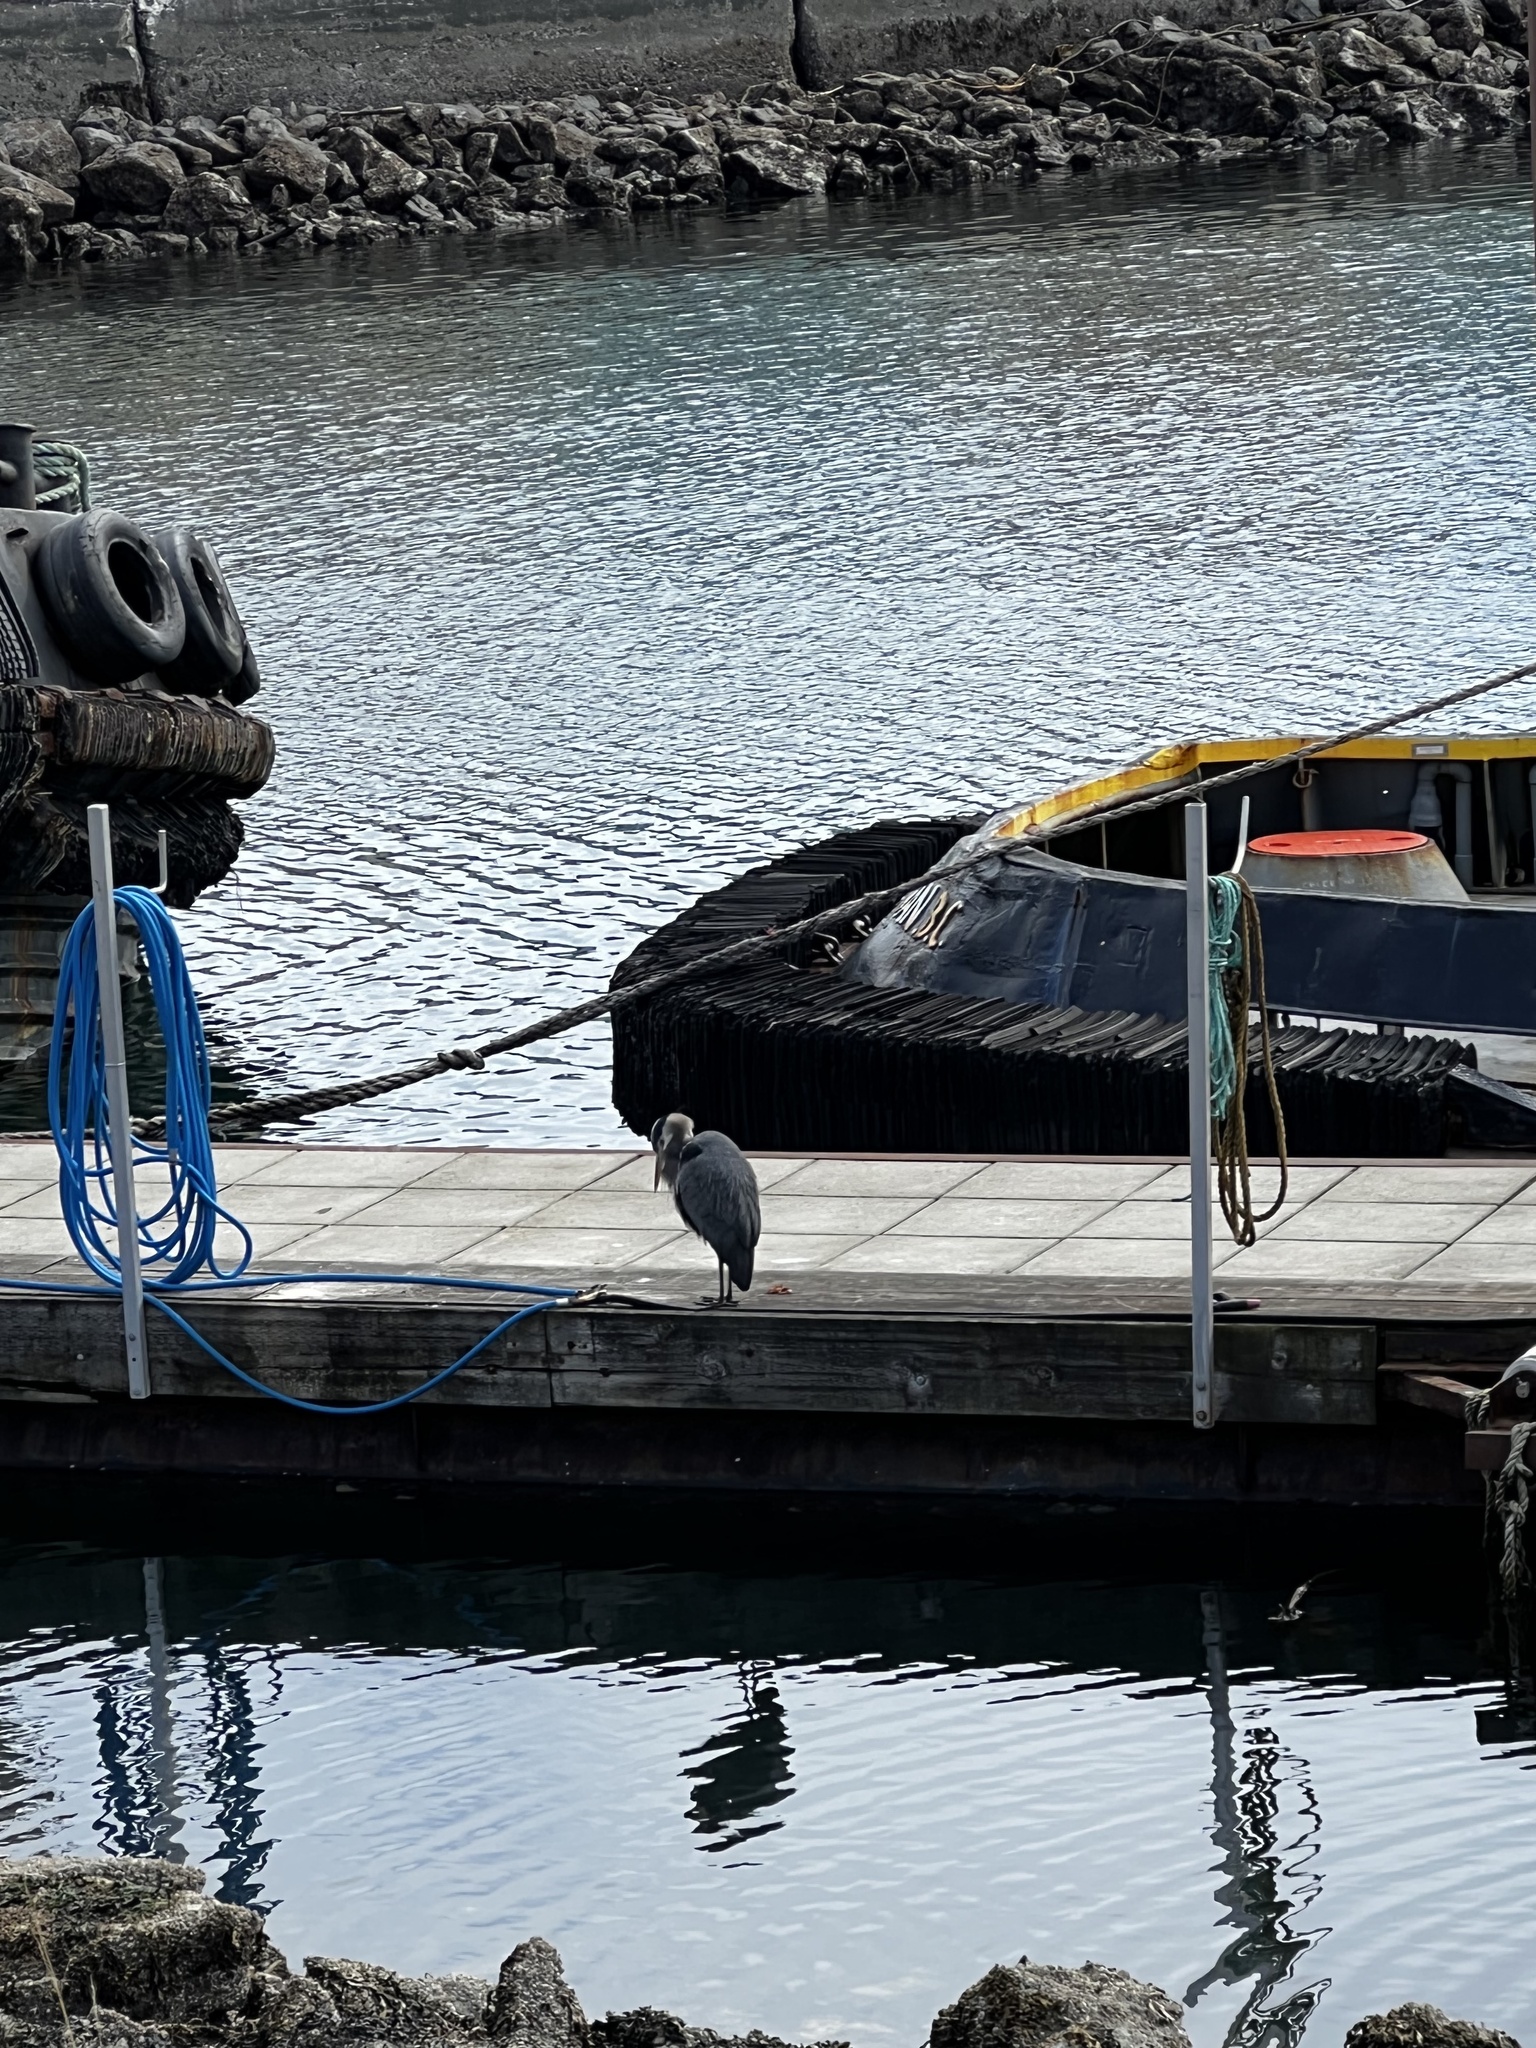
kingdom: Animalia
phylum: Chordata
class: Aves
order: Pelecaniformes
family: Ardeidae
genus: Ardea
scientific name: Ardea herodias
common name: Great blue heron
